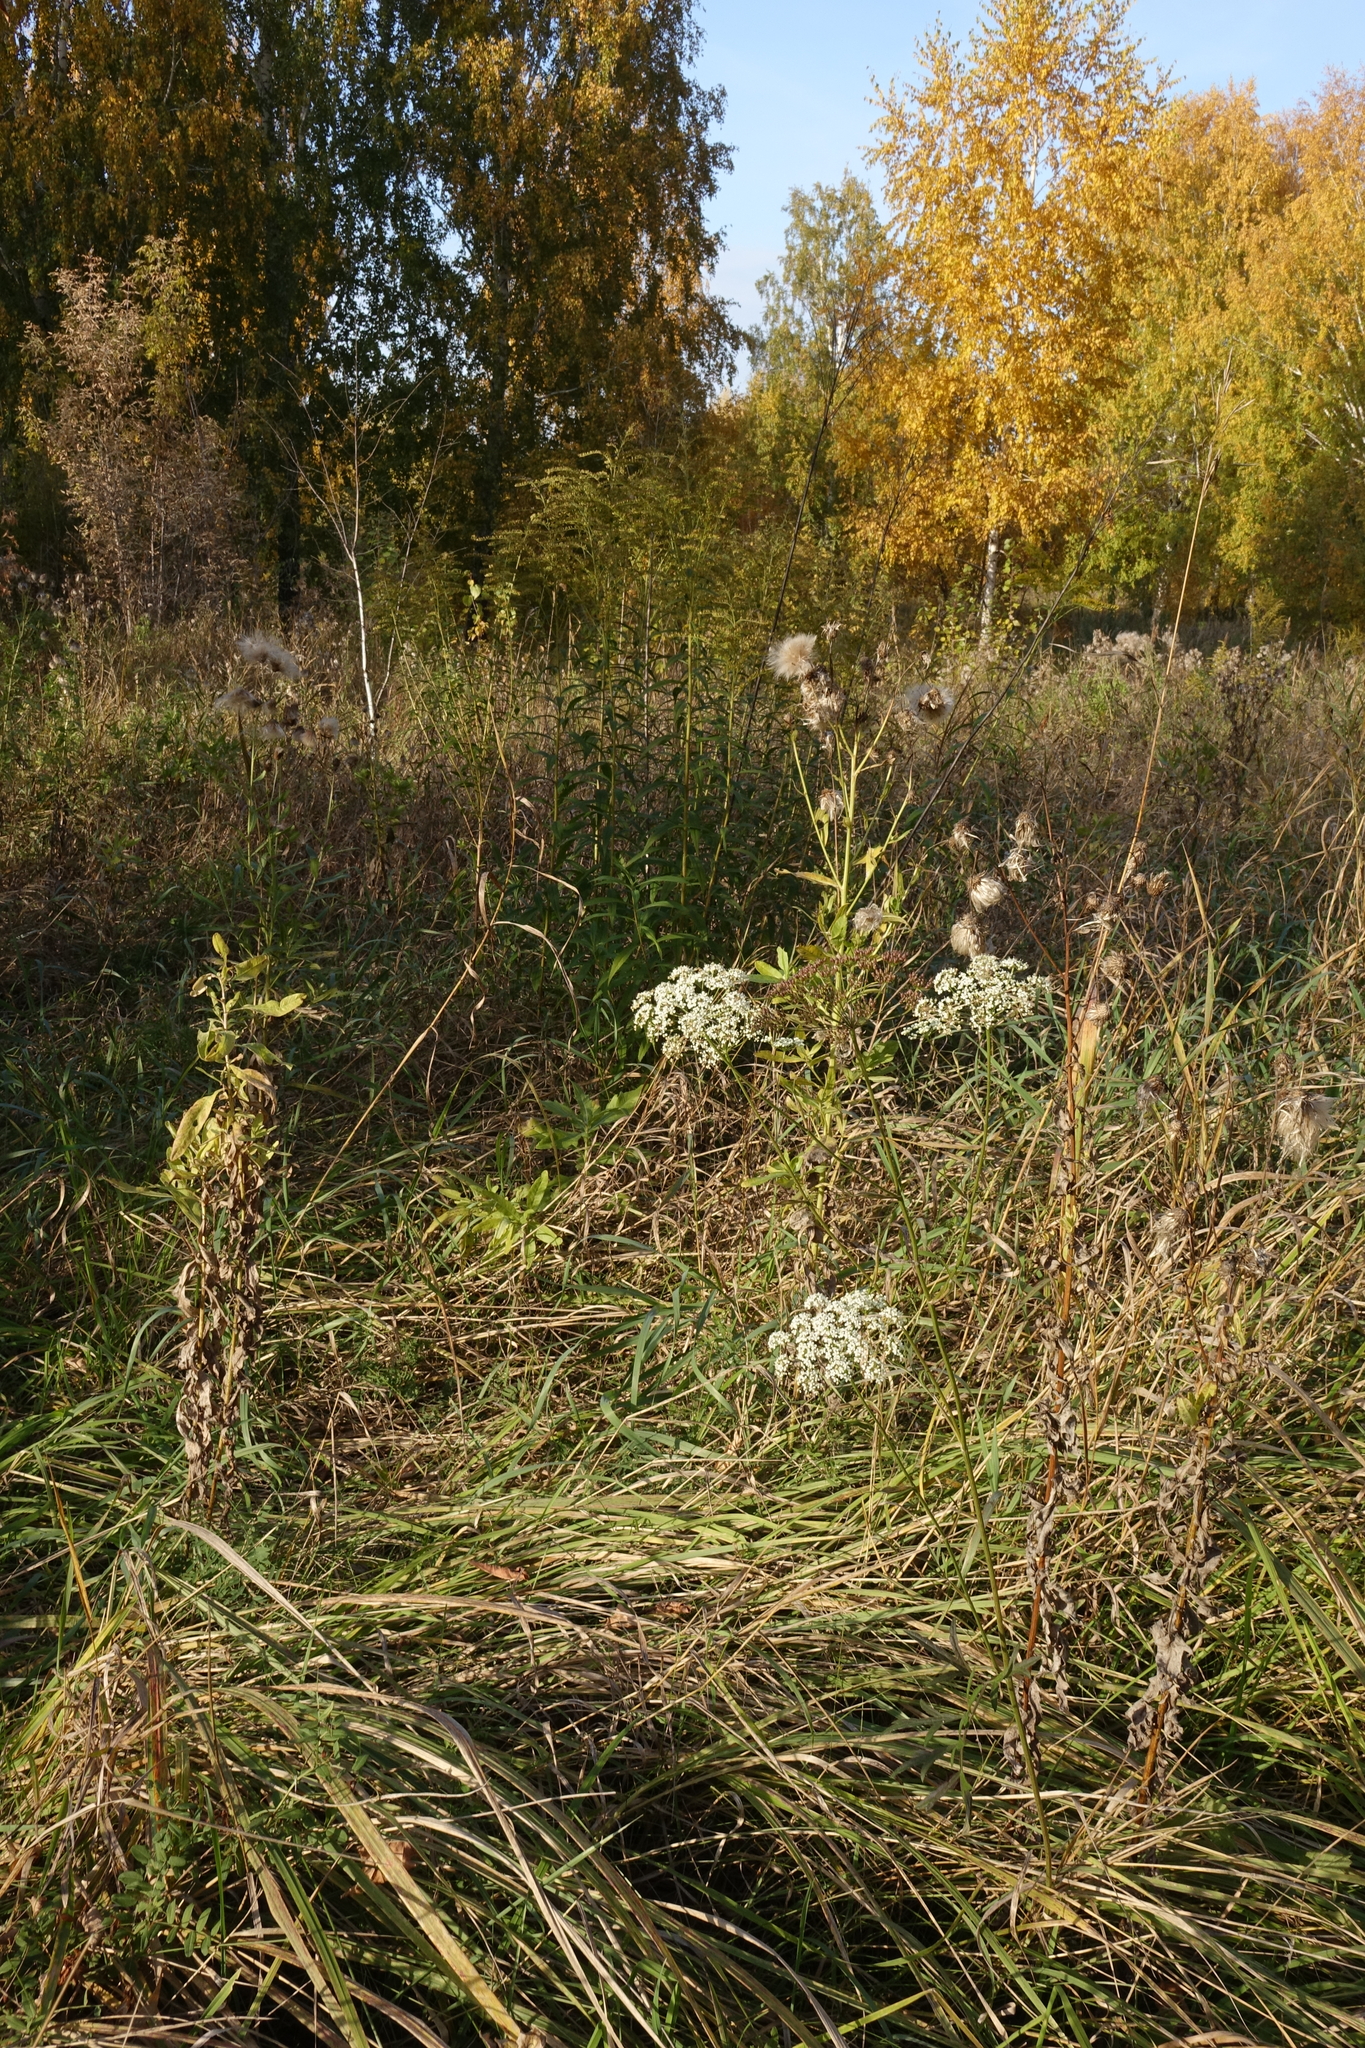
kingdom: Plantae
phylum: Tracheophyta
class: Magnoliopsida
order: Apiales
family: Apiaceae
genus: Pimpinella
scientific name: Pimpinella saxifraga
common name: Burnet-saxifrage
